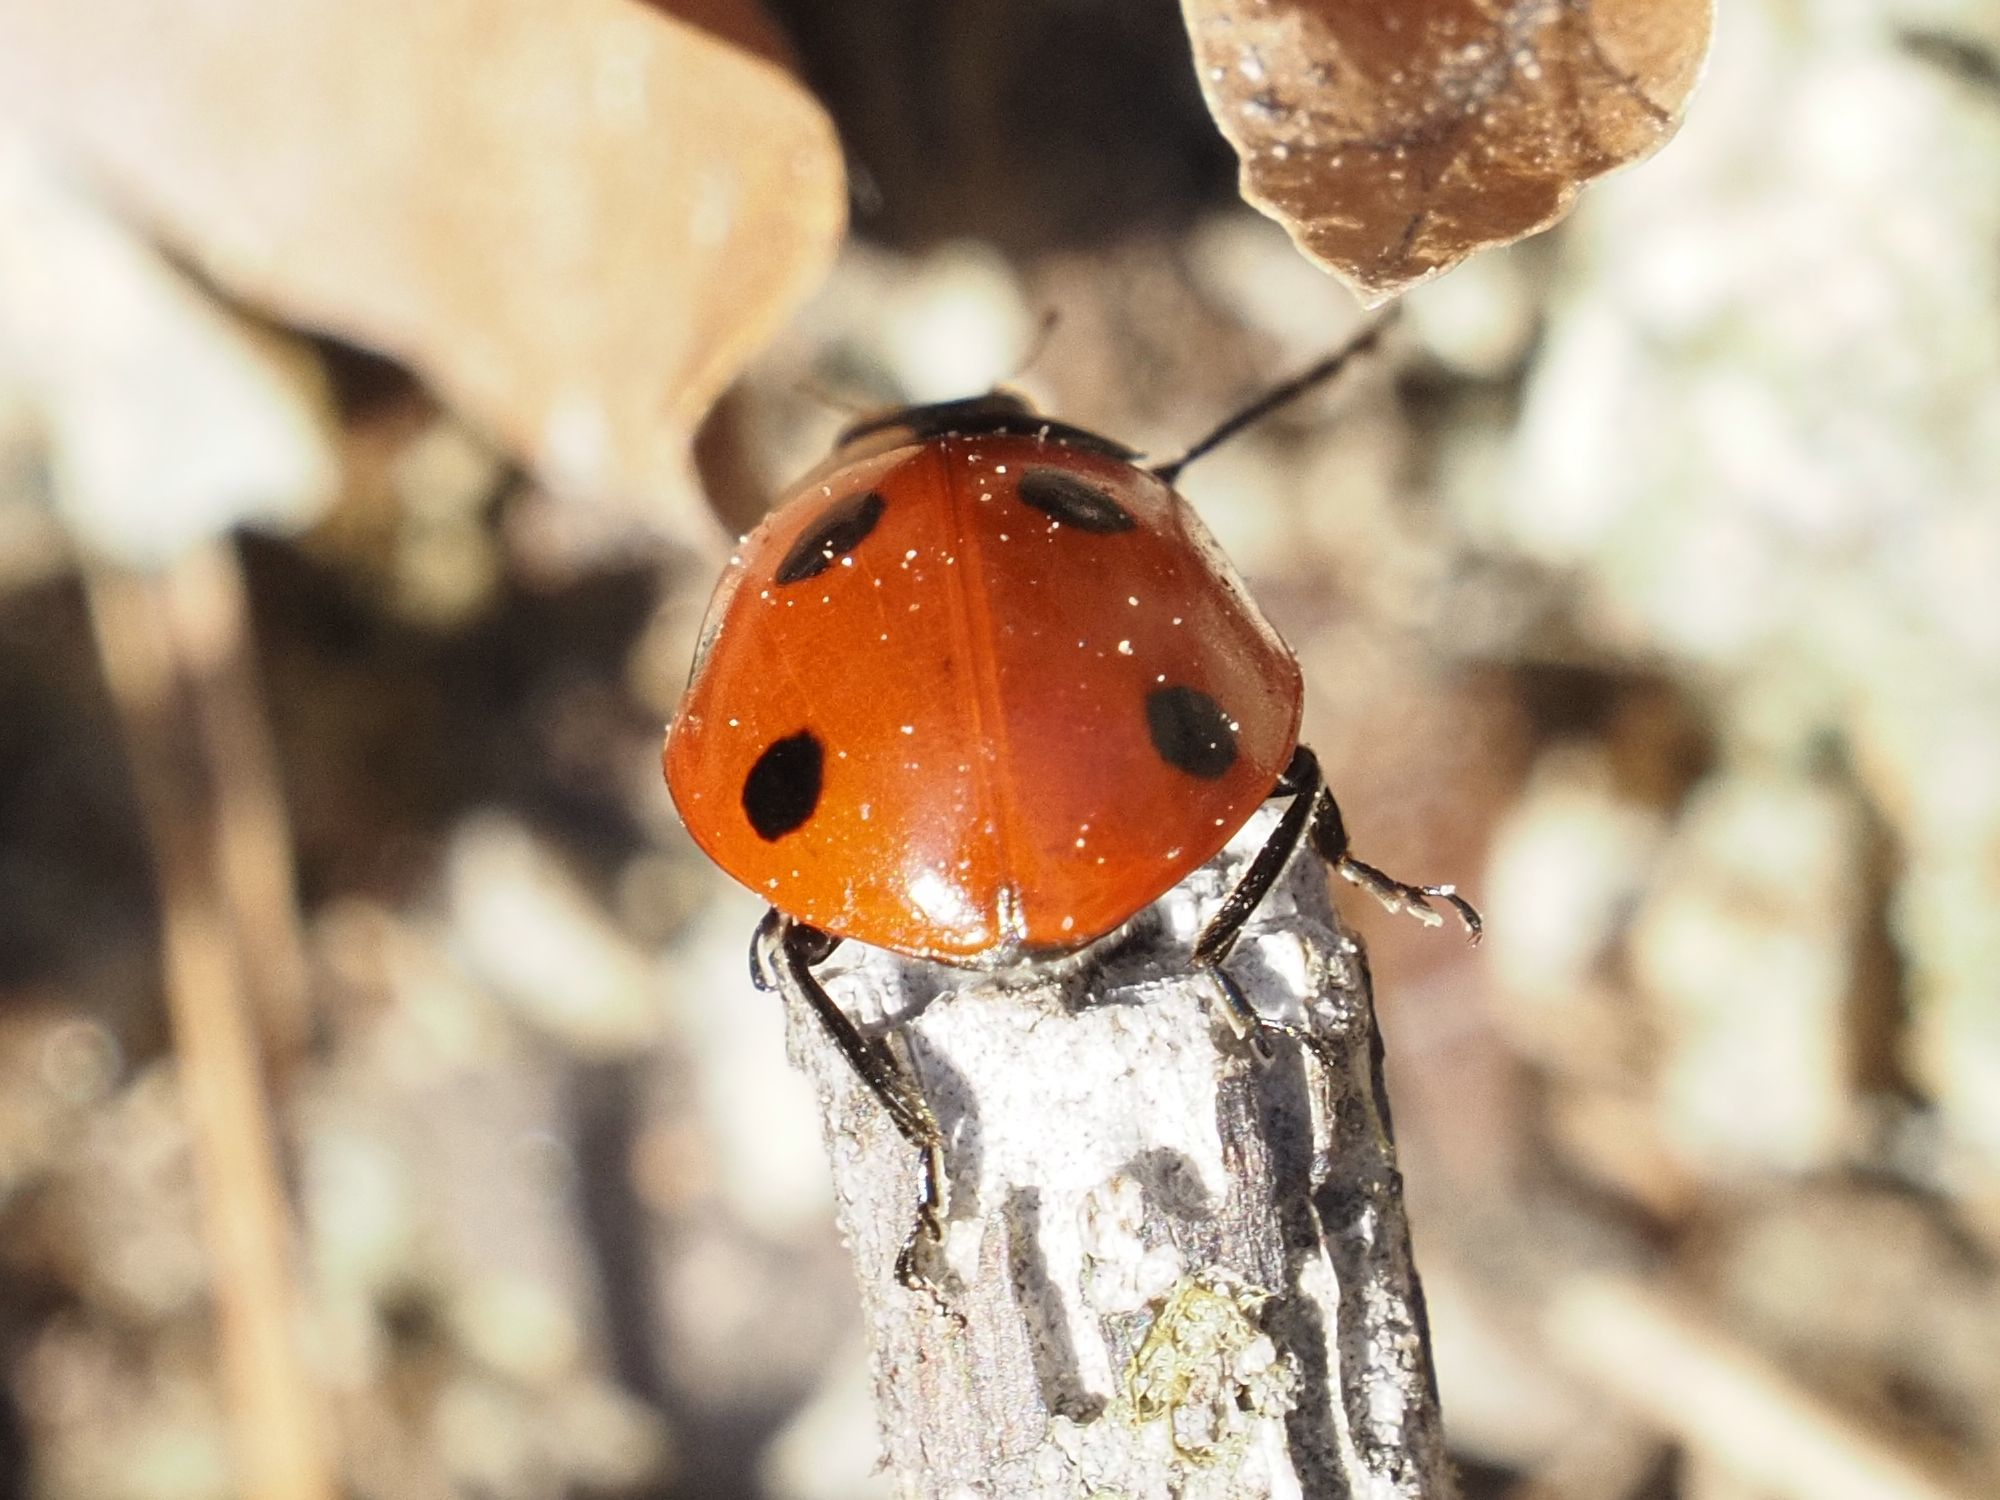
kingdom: Animalia
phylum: Arthropoda
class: Insecta
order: Coleoptera
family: Coccinellidae
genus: Coccinella
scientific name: Coccinella septempunctata
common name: Sevenspotted lady beetle
